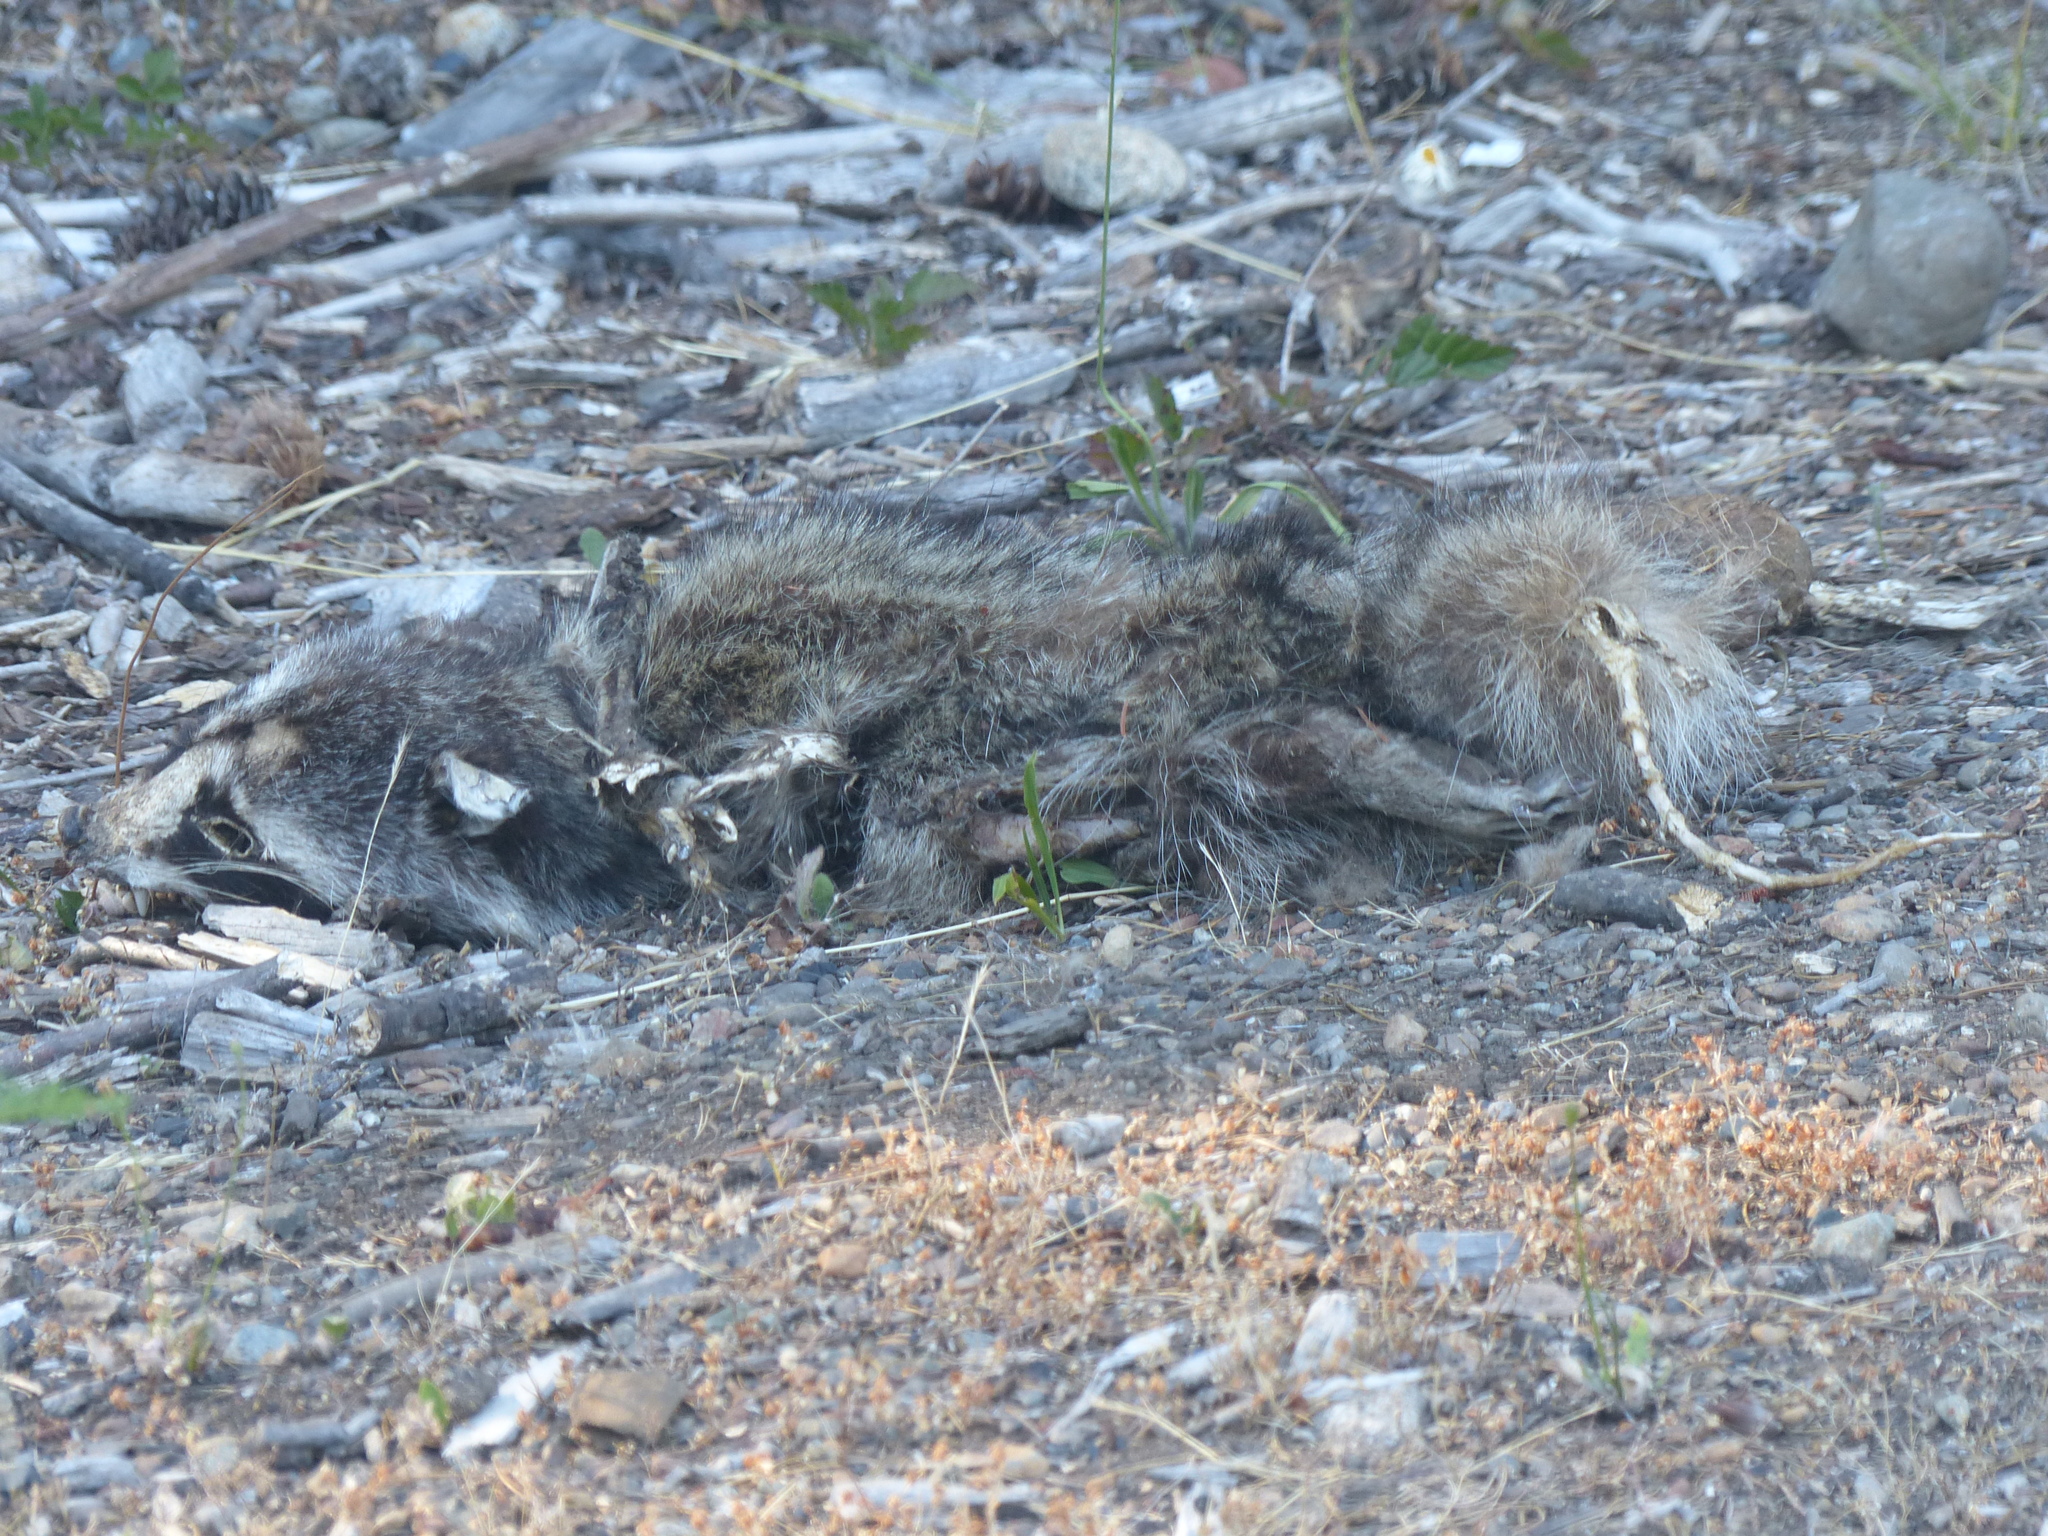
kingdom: Animalia
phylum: Chordata
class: Mammalia
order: Carnivora
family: Procyonidae
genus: Procyon
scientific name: Procyon lotor
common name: Raccoon
